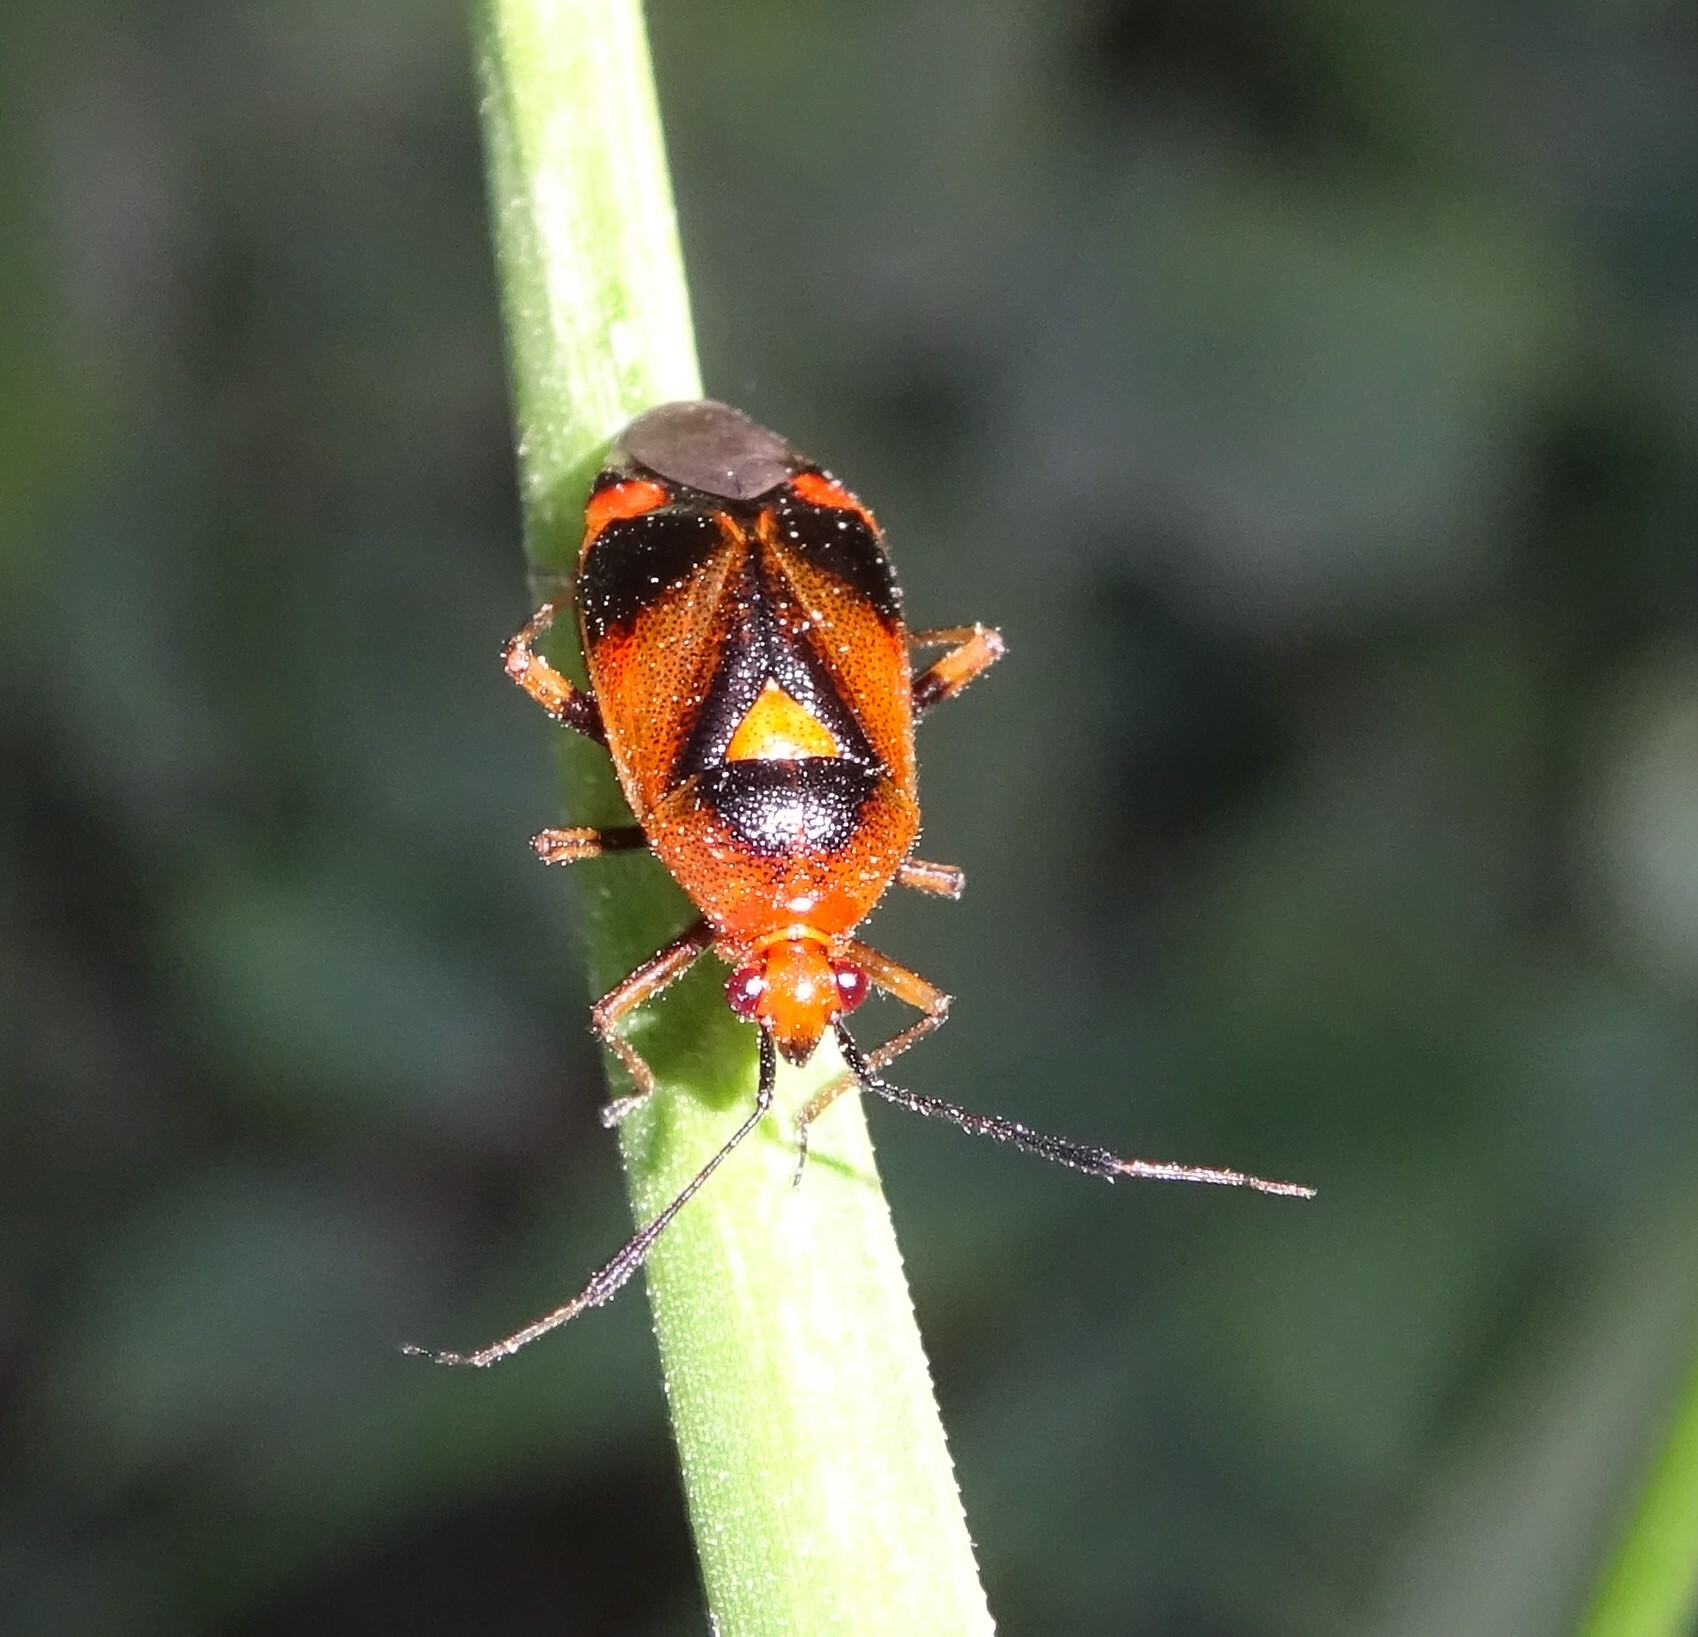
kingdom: Animalia
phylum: Arthropoda
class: Insecta
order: Hemiptera
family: Miridae
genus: Deraeocoris
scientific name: Deraeocoris ruber
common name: Plant bug
